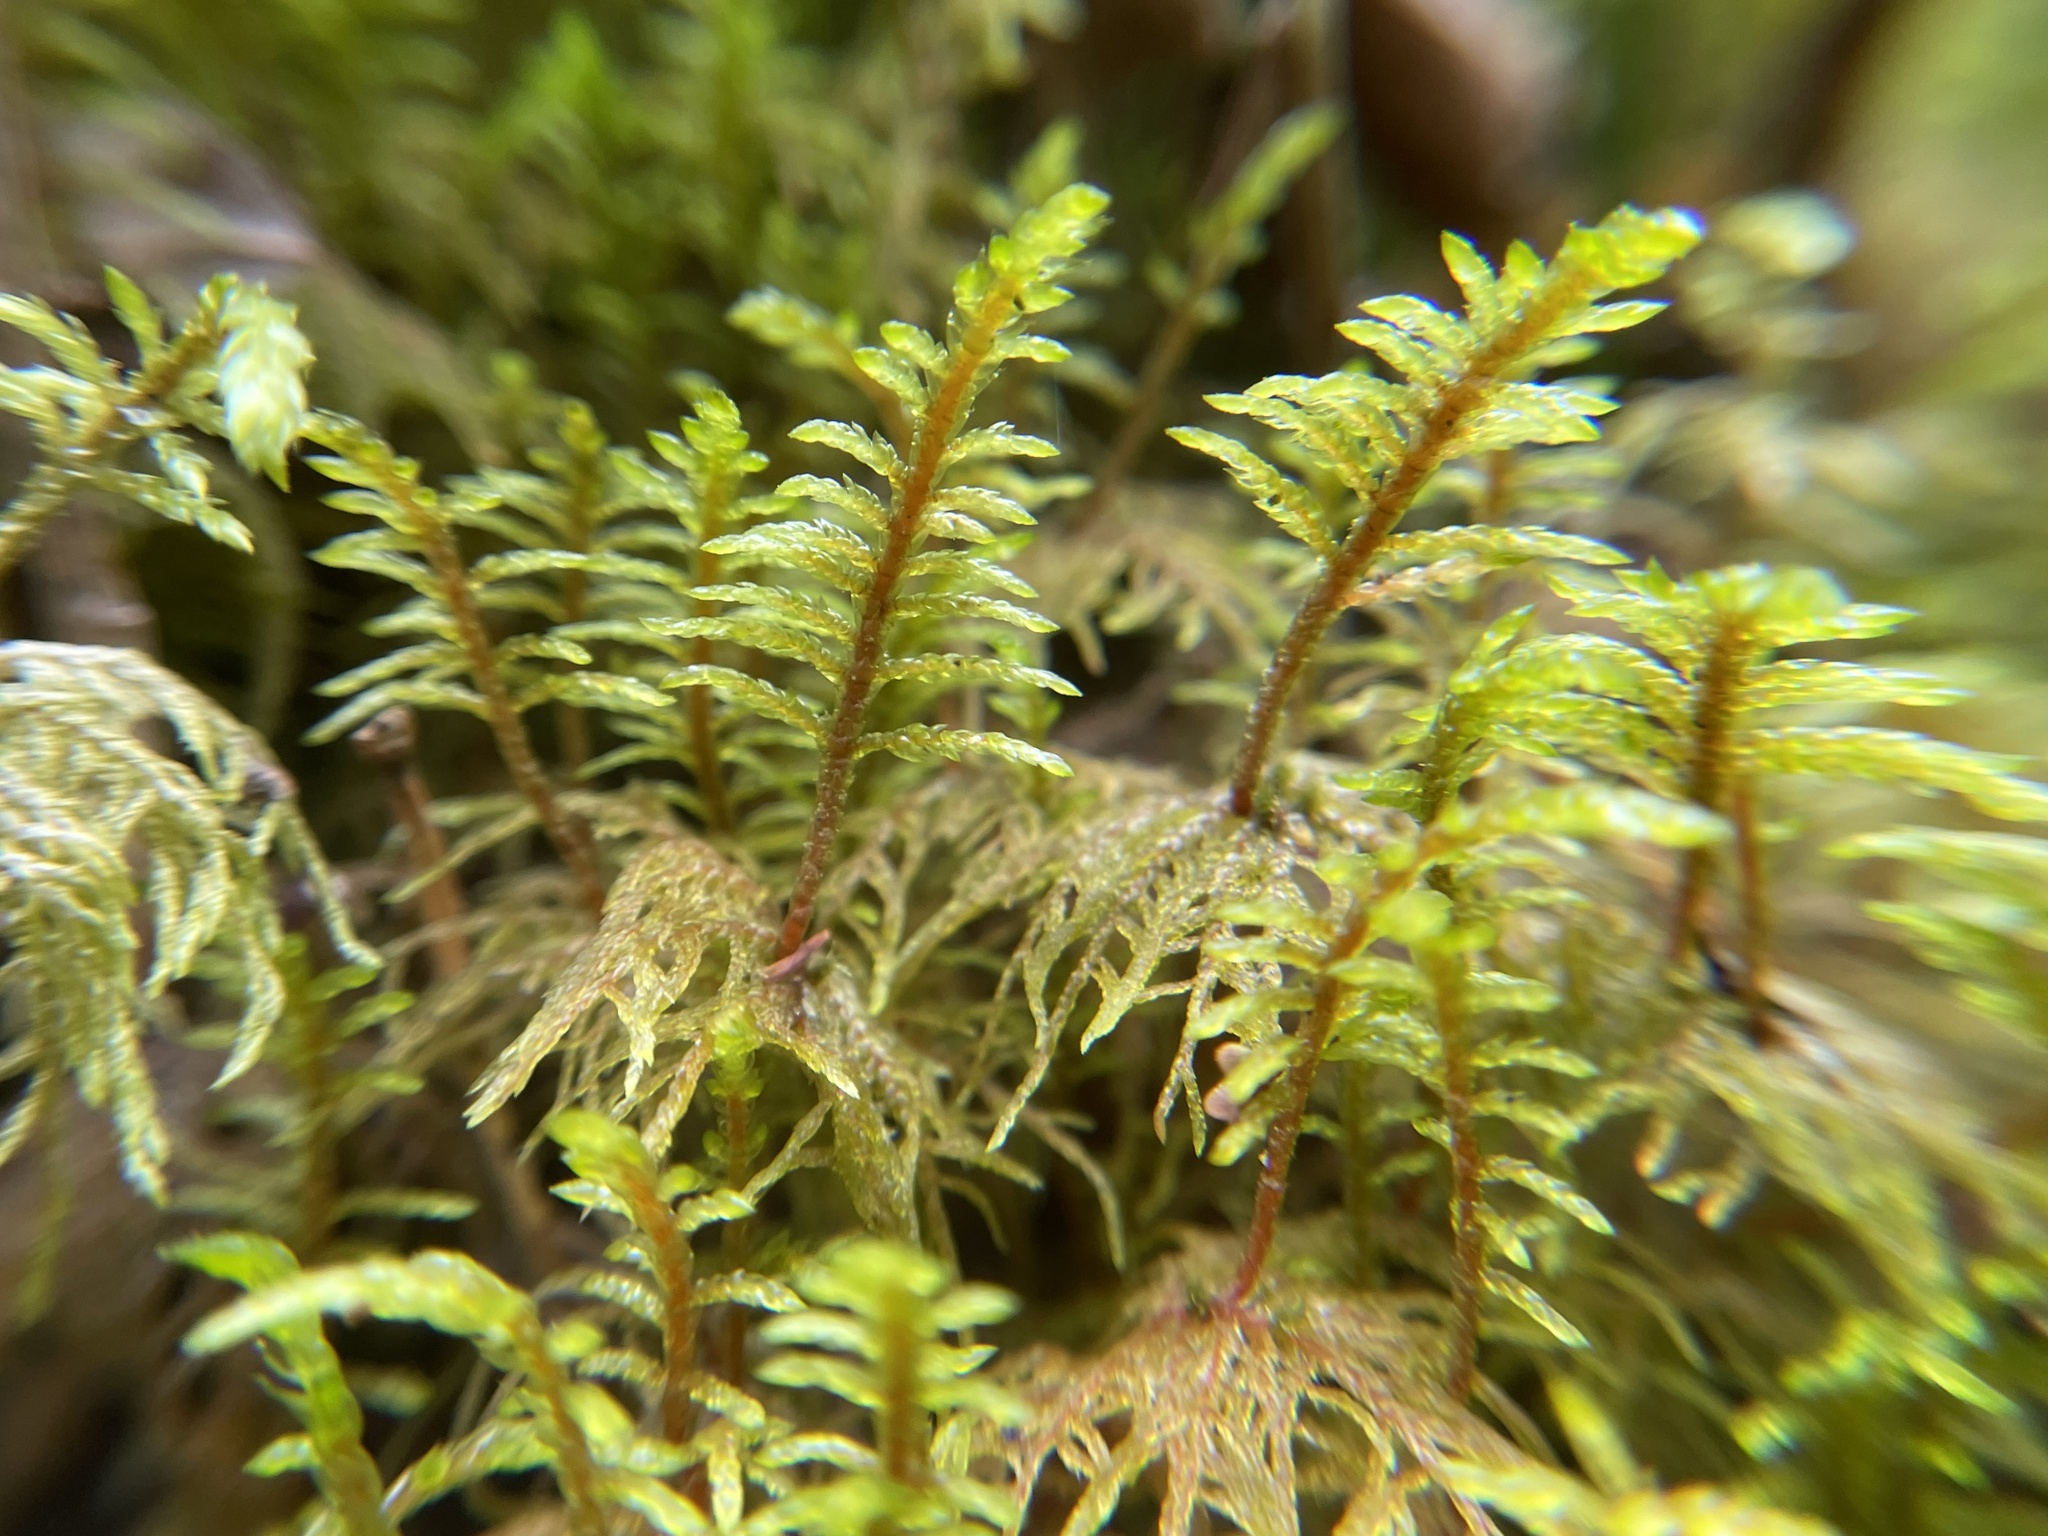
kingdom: Plantae
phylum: Bryophyta
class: Bryopsida
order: Hypnales
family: Hylocomiaceae
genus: Hylocomium
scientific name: Hylocomium splendens
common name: Stairstep moss
